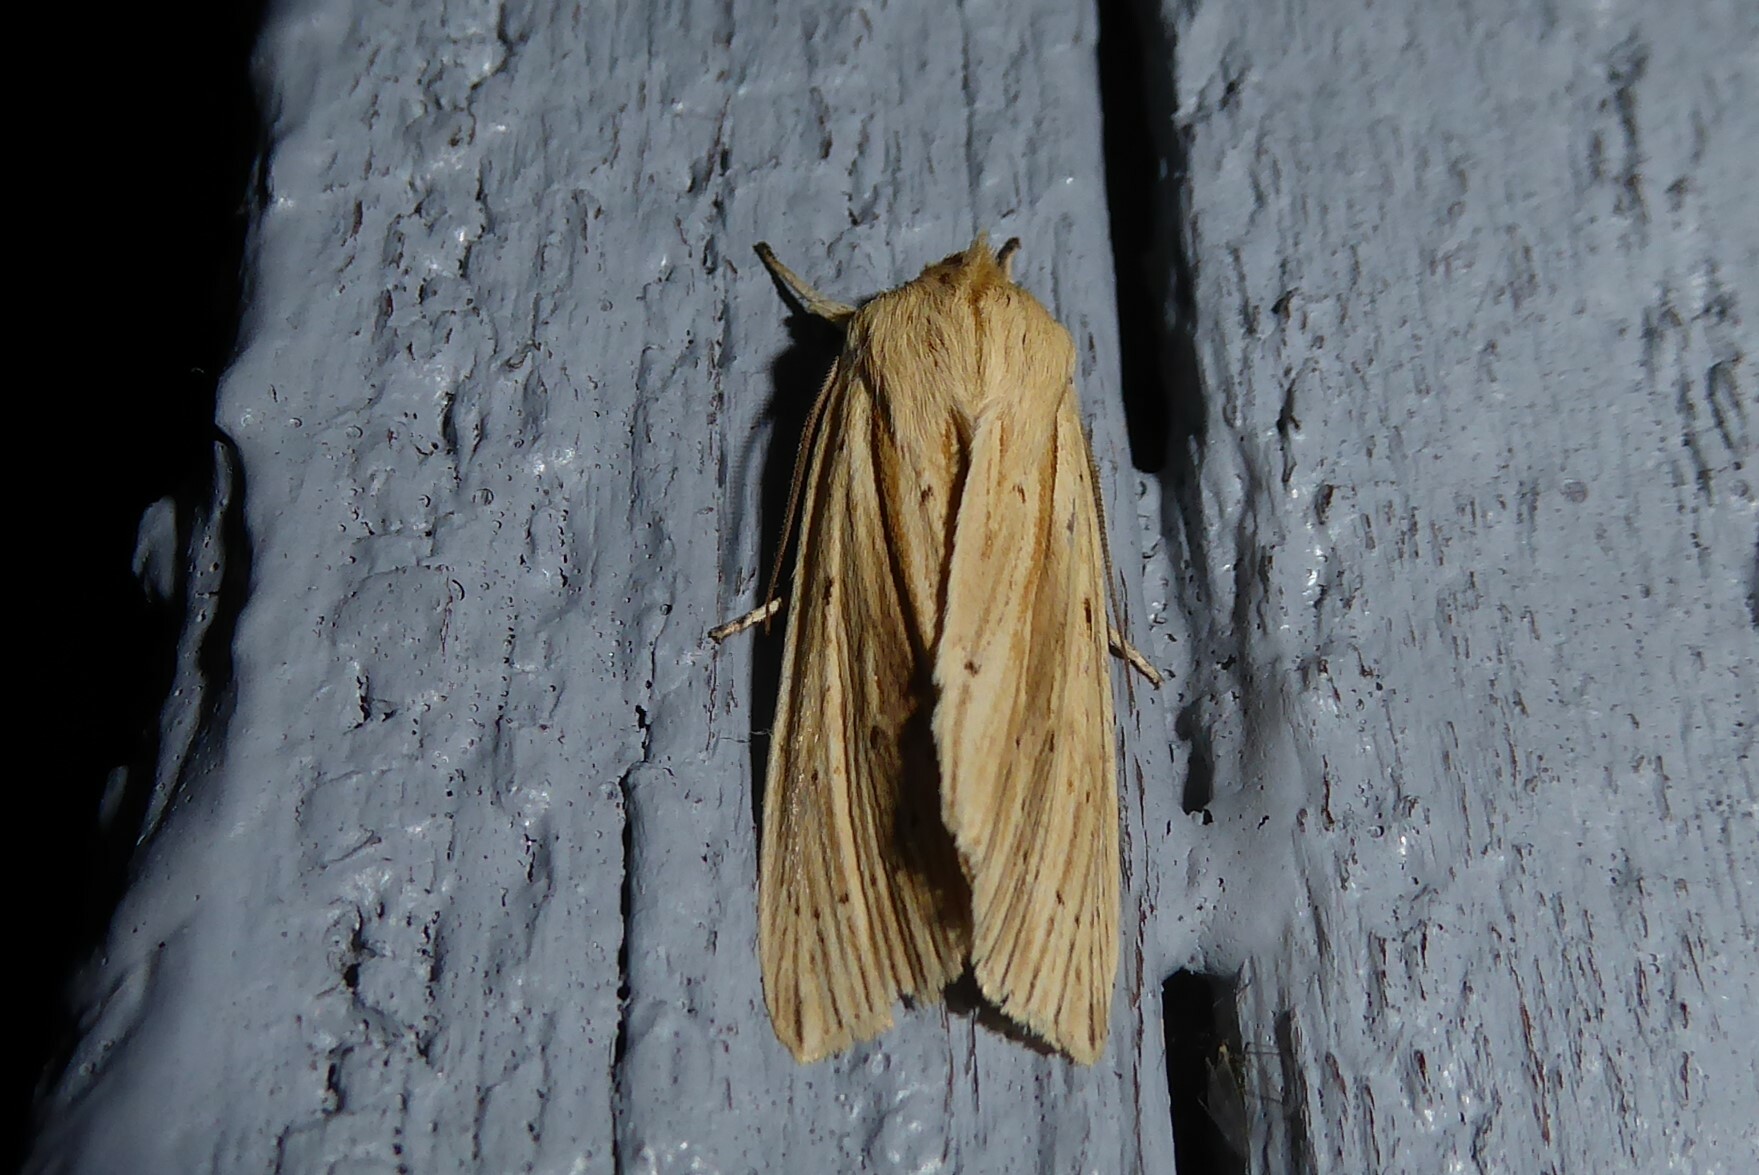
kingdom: Animalia
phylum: Arthropoda
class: Insecta
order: Lepidoptera
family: Noctuidae
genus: Ichneutica
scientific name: Ichneutica semivittata
